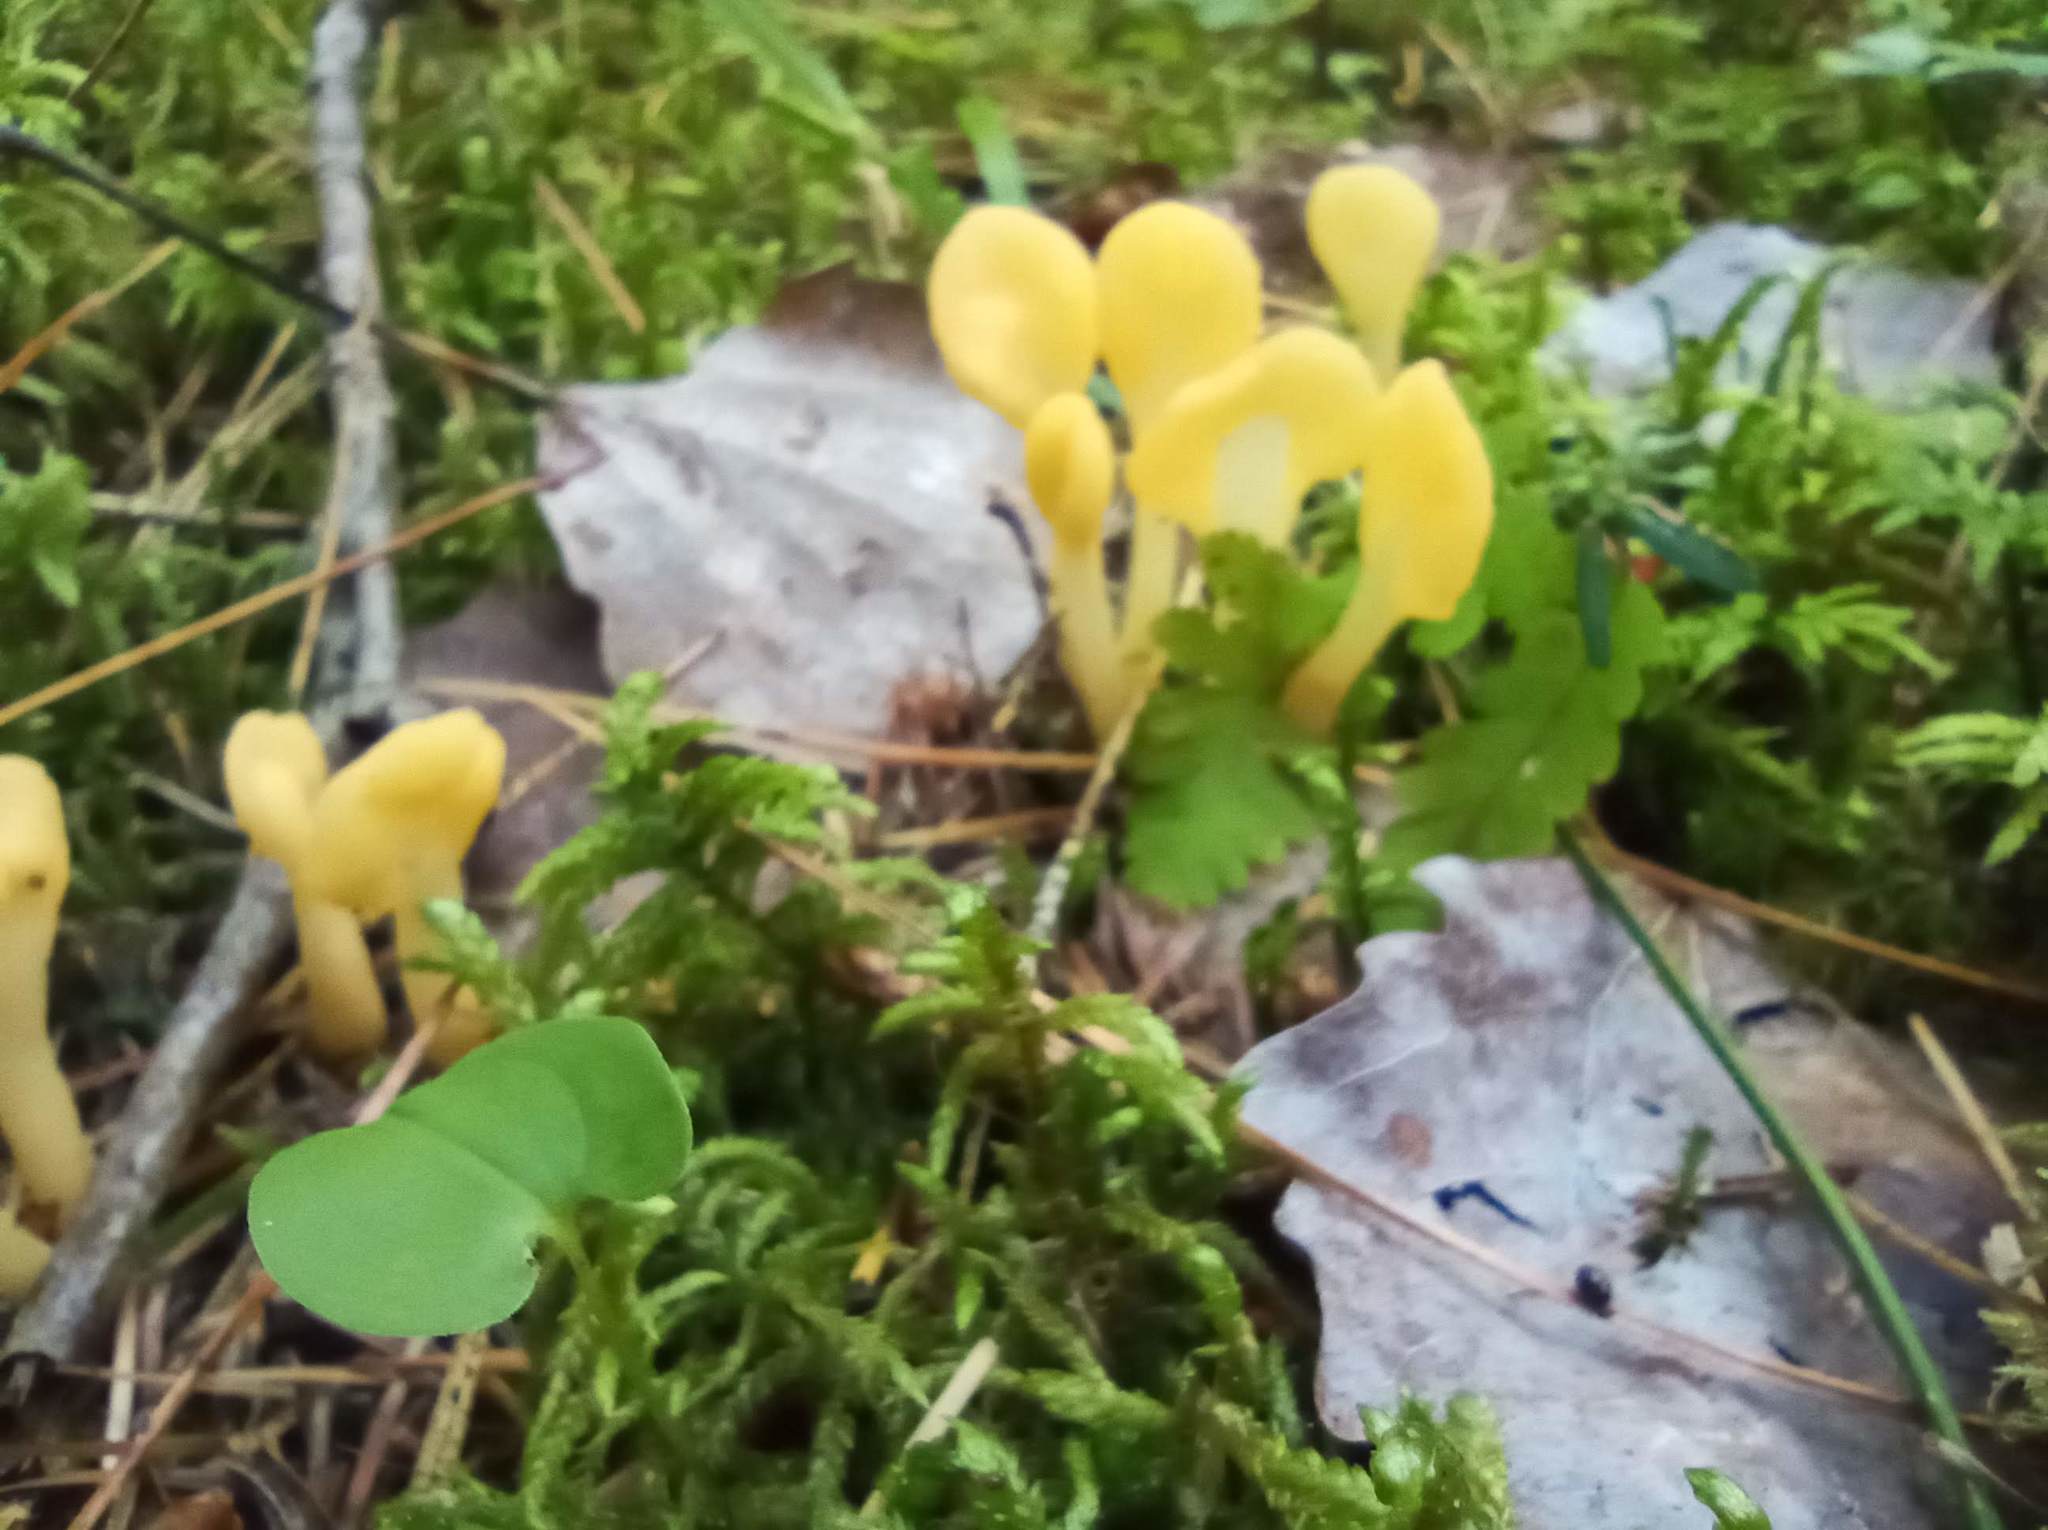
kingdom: Fungi
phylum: Ascomycota
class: Leotiomycetes
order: Rhytismatales
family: Cudoniaceae
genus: Spathularia
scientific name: Spathularia flavida
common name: Yellow fan
